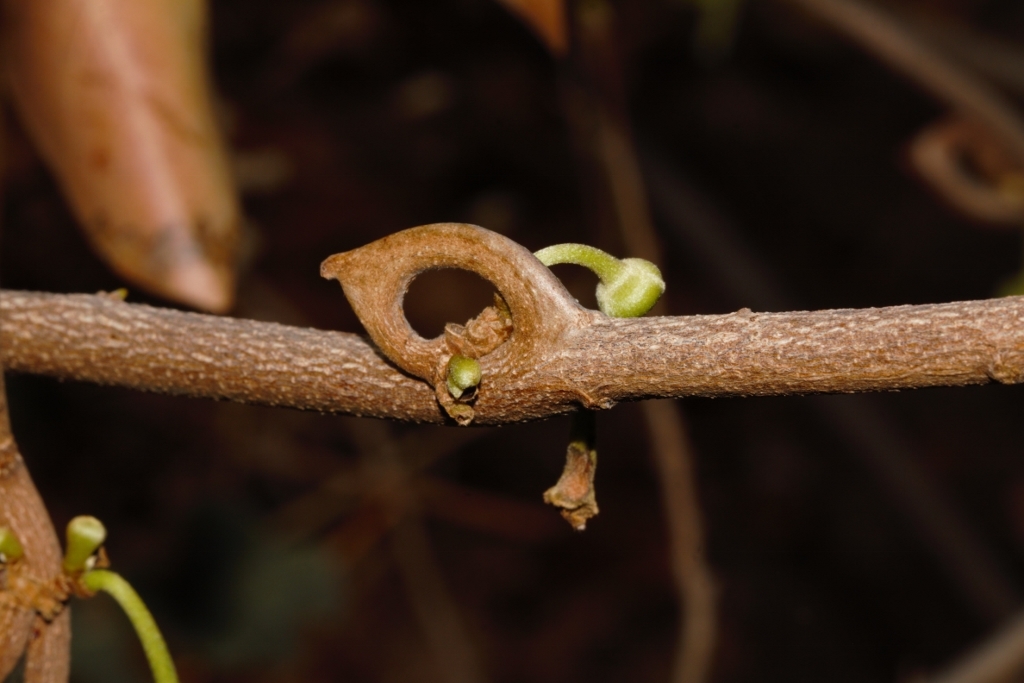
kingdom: Plantae
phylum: Tracheophyta
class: Magnoliopsida
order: Magnoliales
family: Annonaceae
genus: Artabotrys
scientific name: Artabotrys brachypetalus
